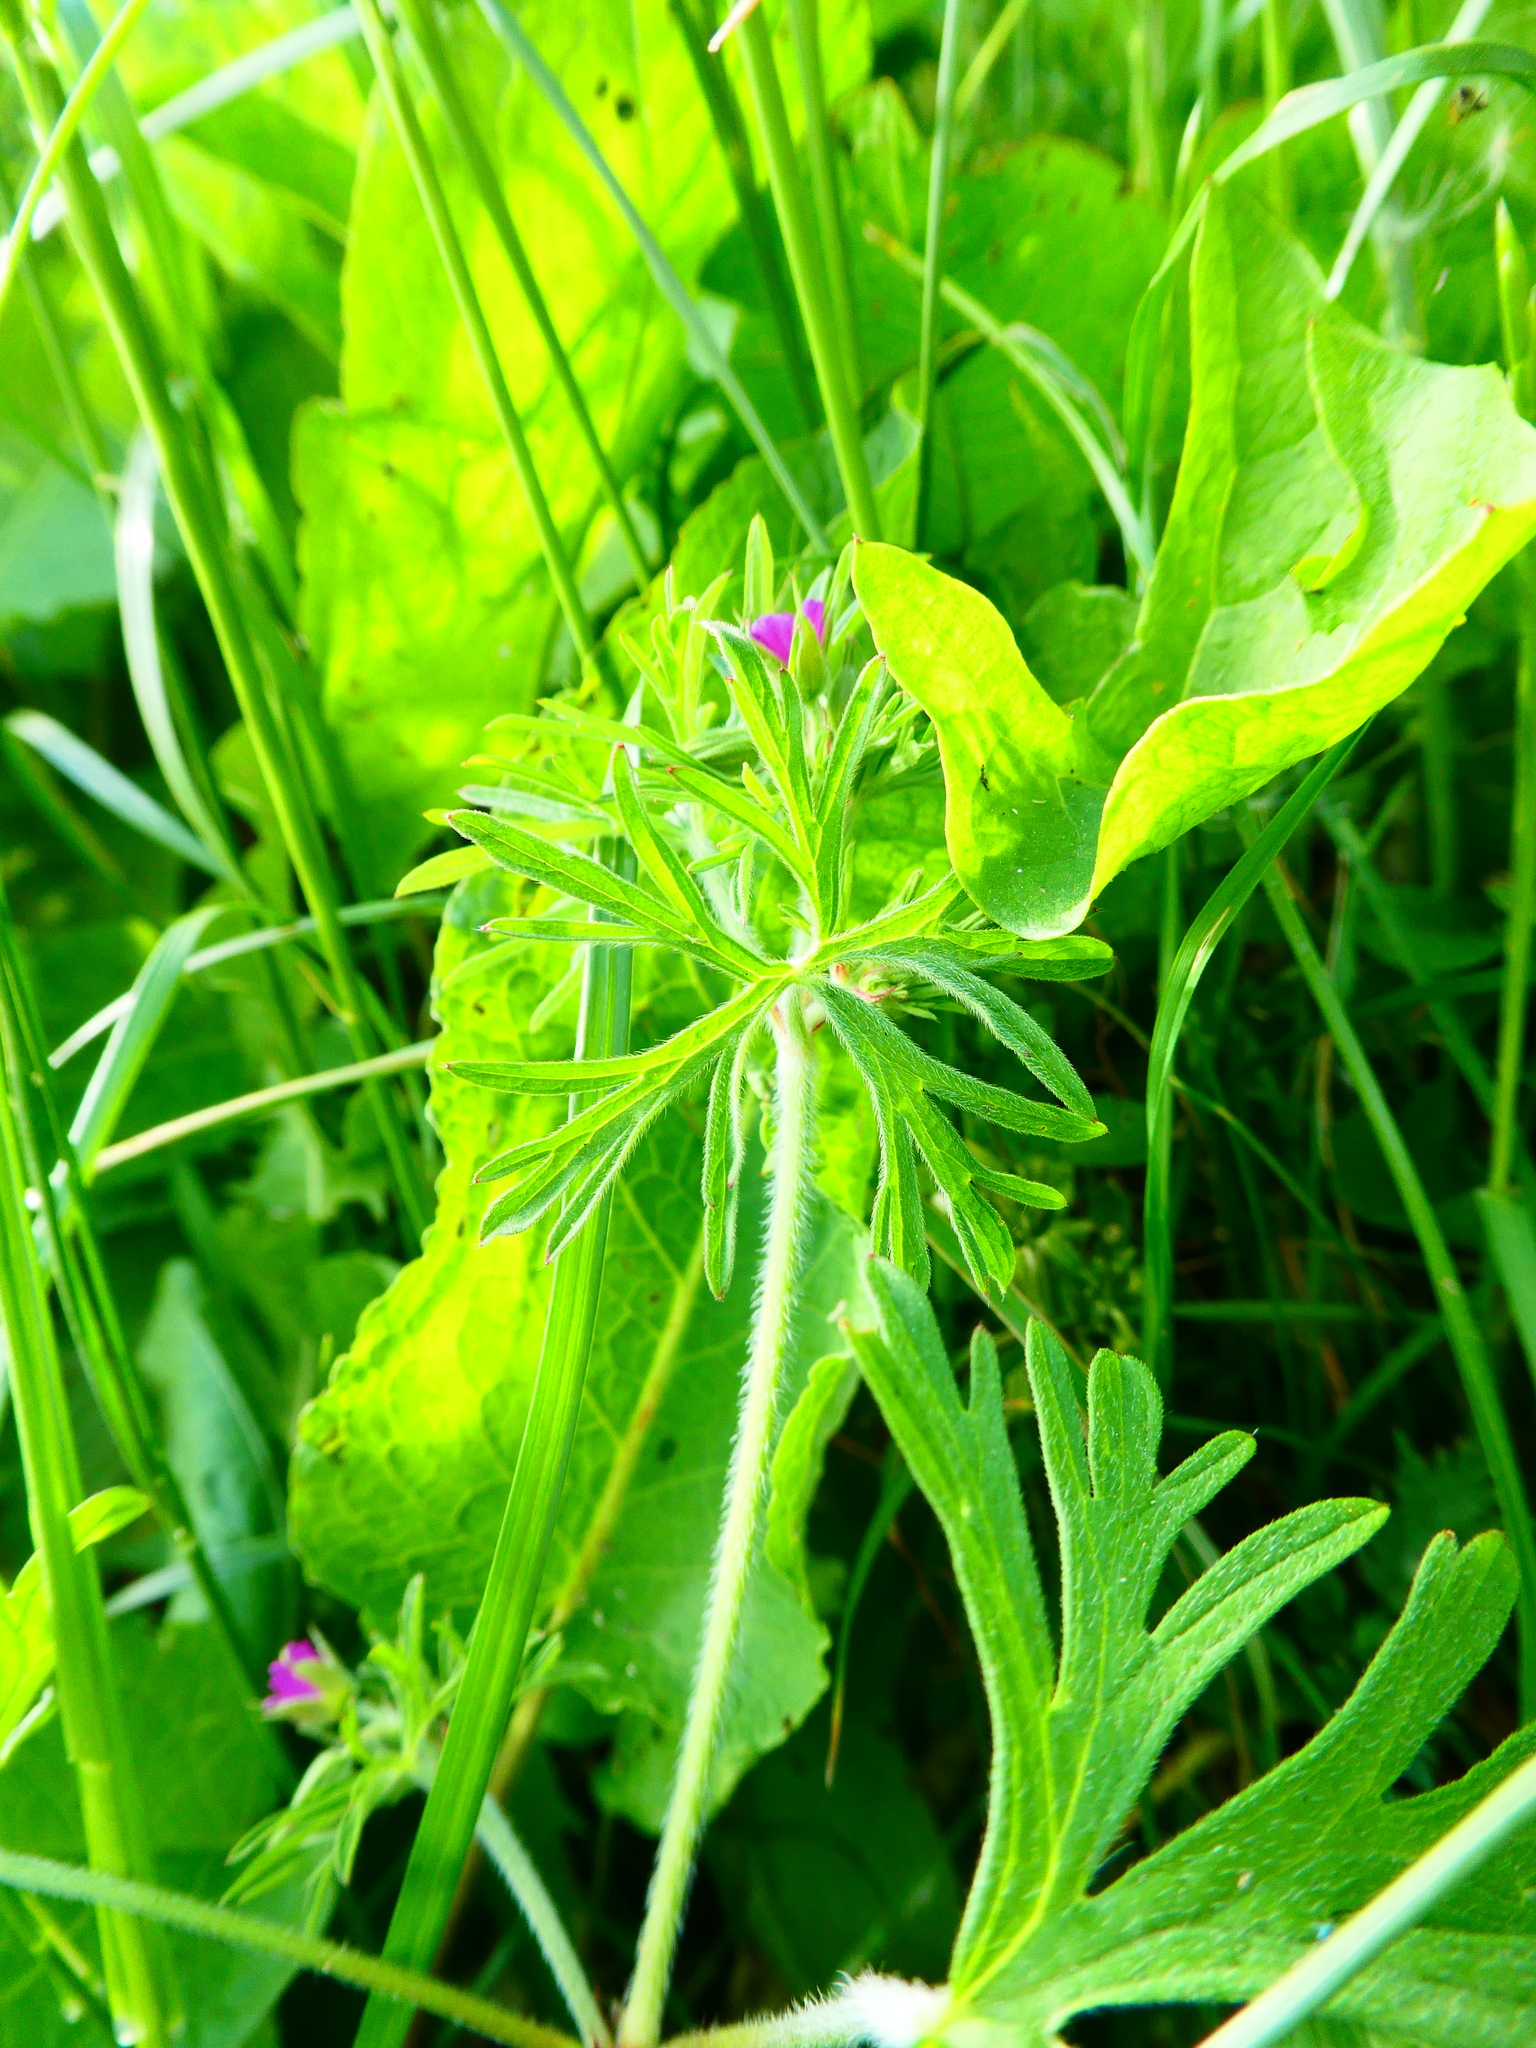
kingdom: Plantae
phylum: Tracheophyta
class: Magnoliopsida
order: Geraniales
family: Geraniaceae
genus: Geranium
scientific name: Geranium dissectum
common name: Cut-leaved crane's-bill
